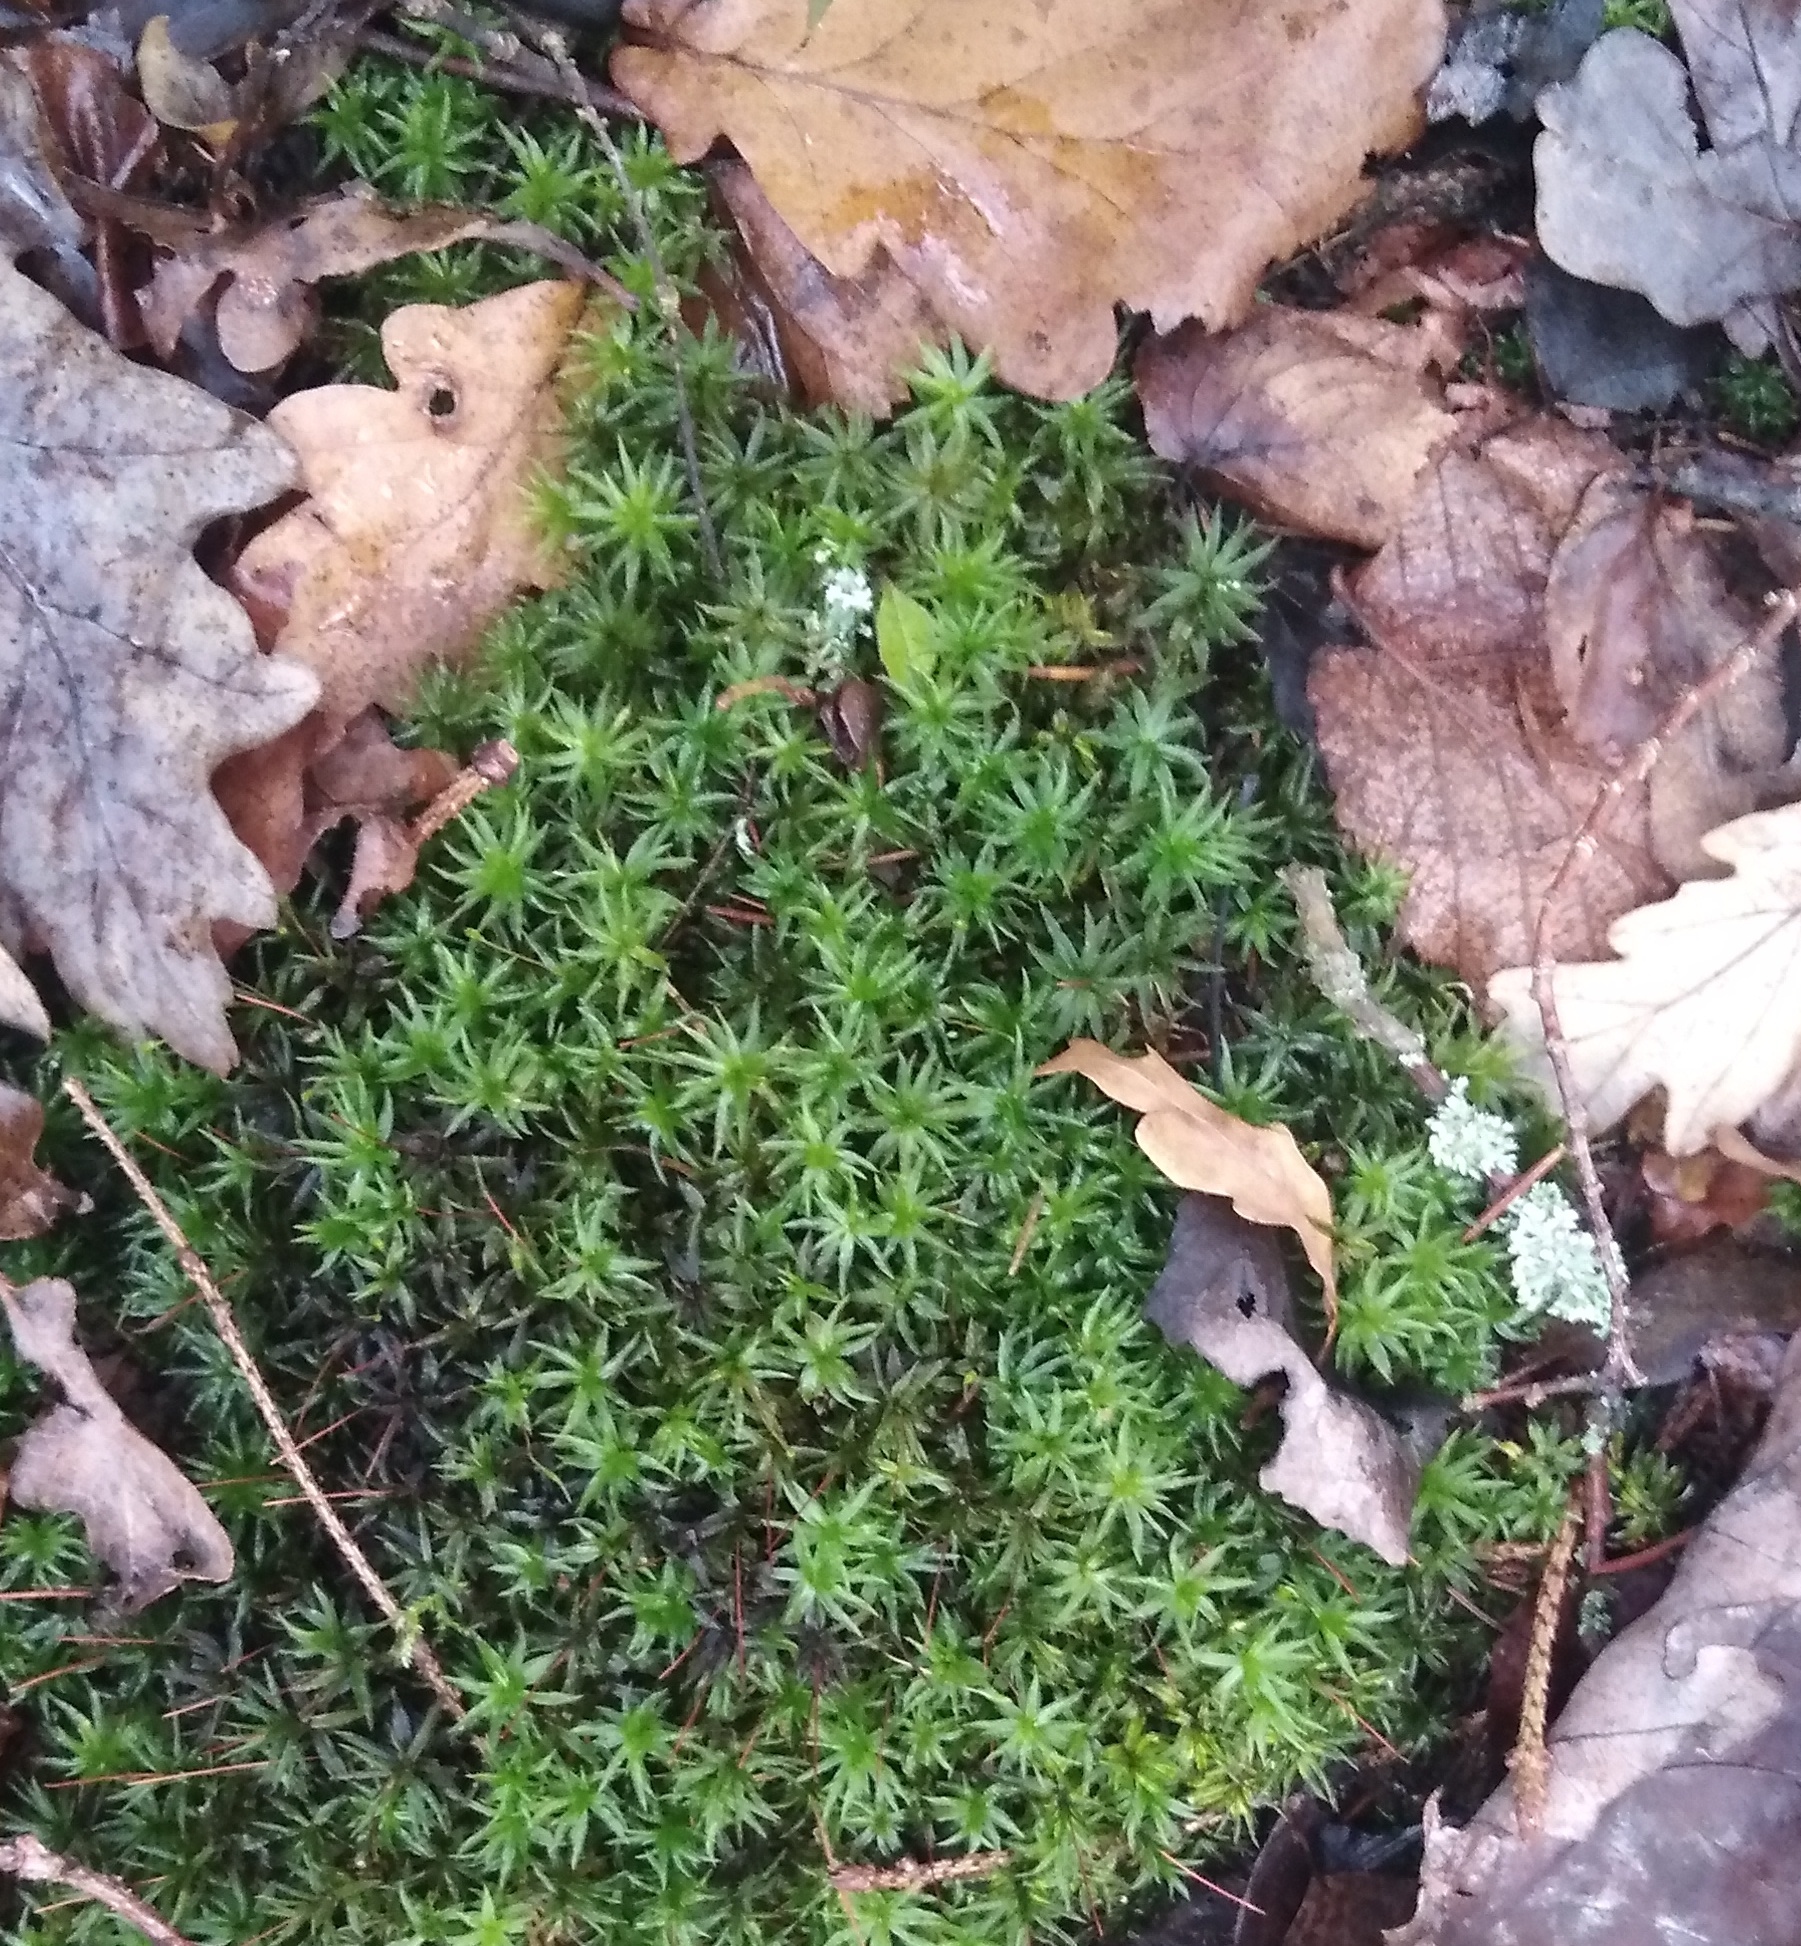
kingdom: Plantae
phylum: Bryophyta
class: Polytrichopsida
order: Polytrichales
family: Polytrichaceae
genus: Atrichum
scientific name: Atrichum undulatum
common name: Common smoothcap
